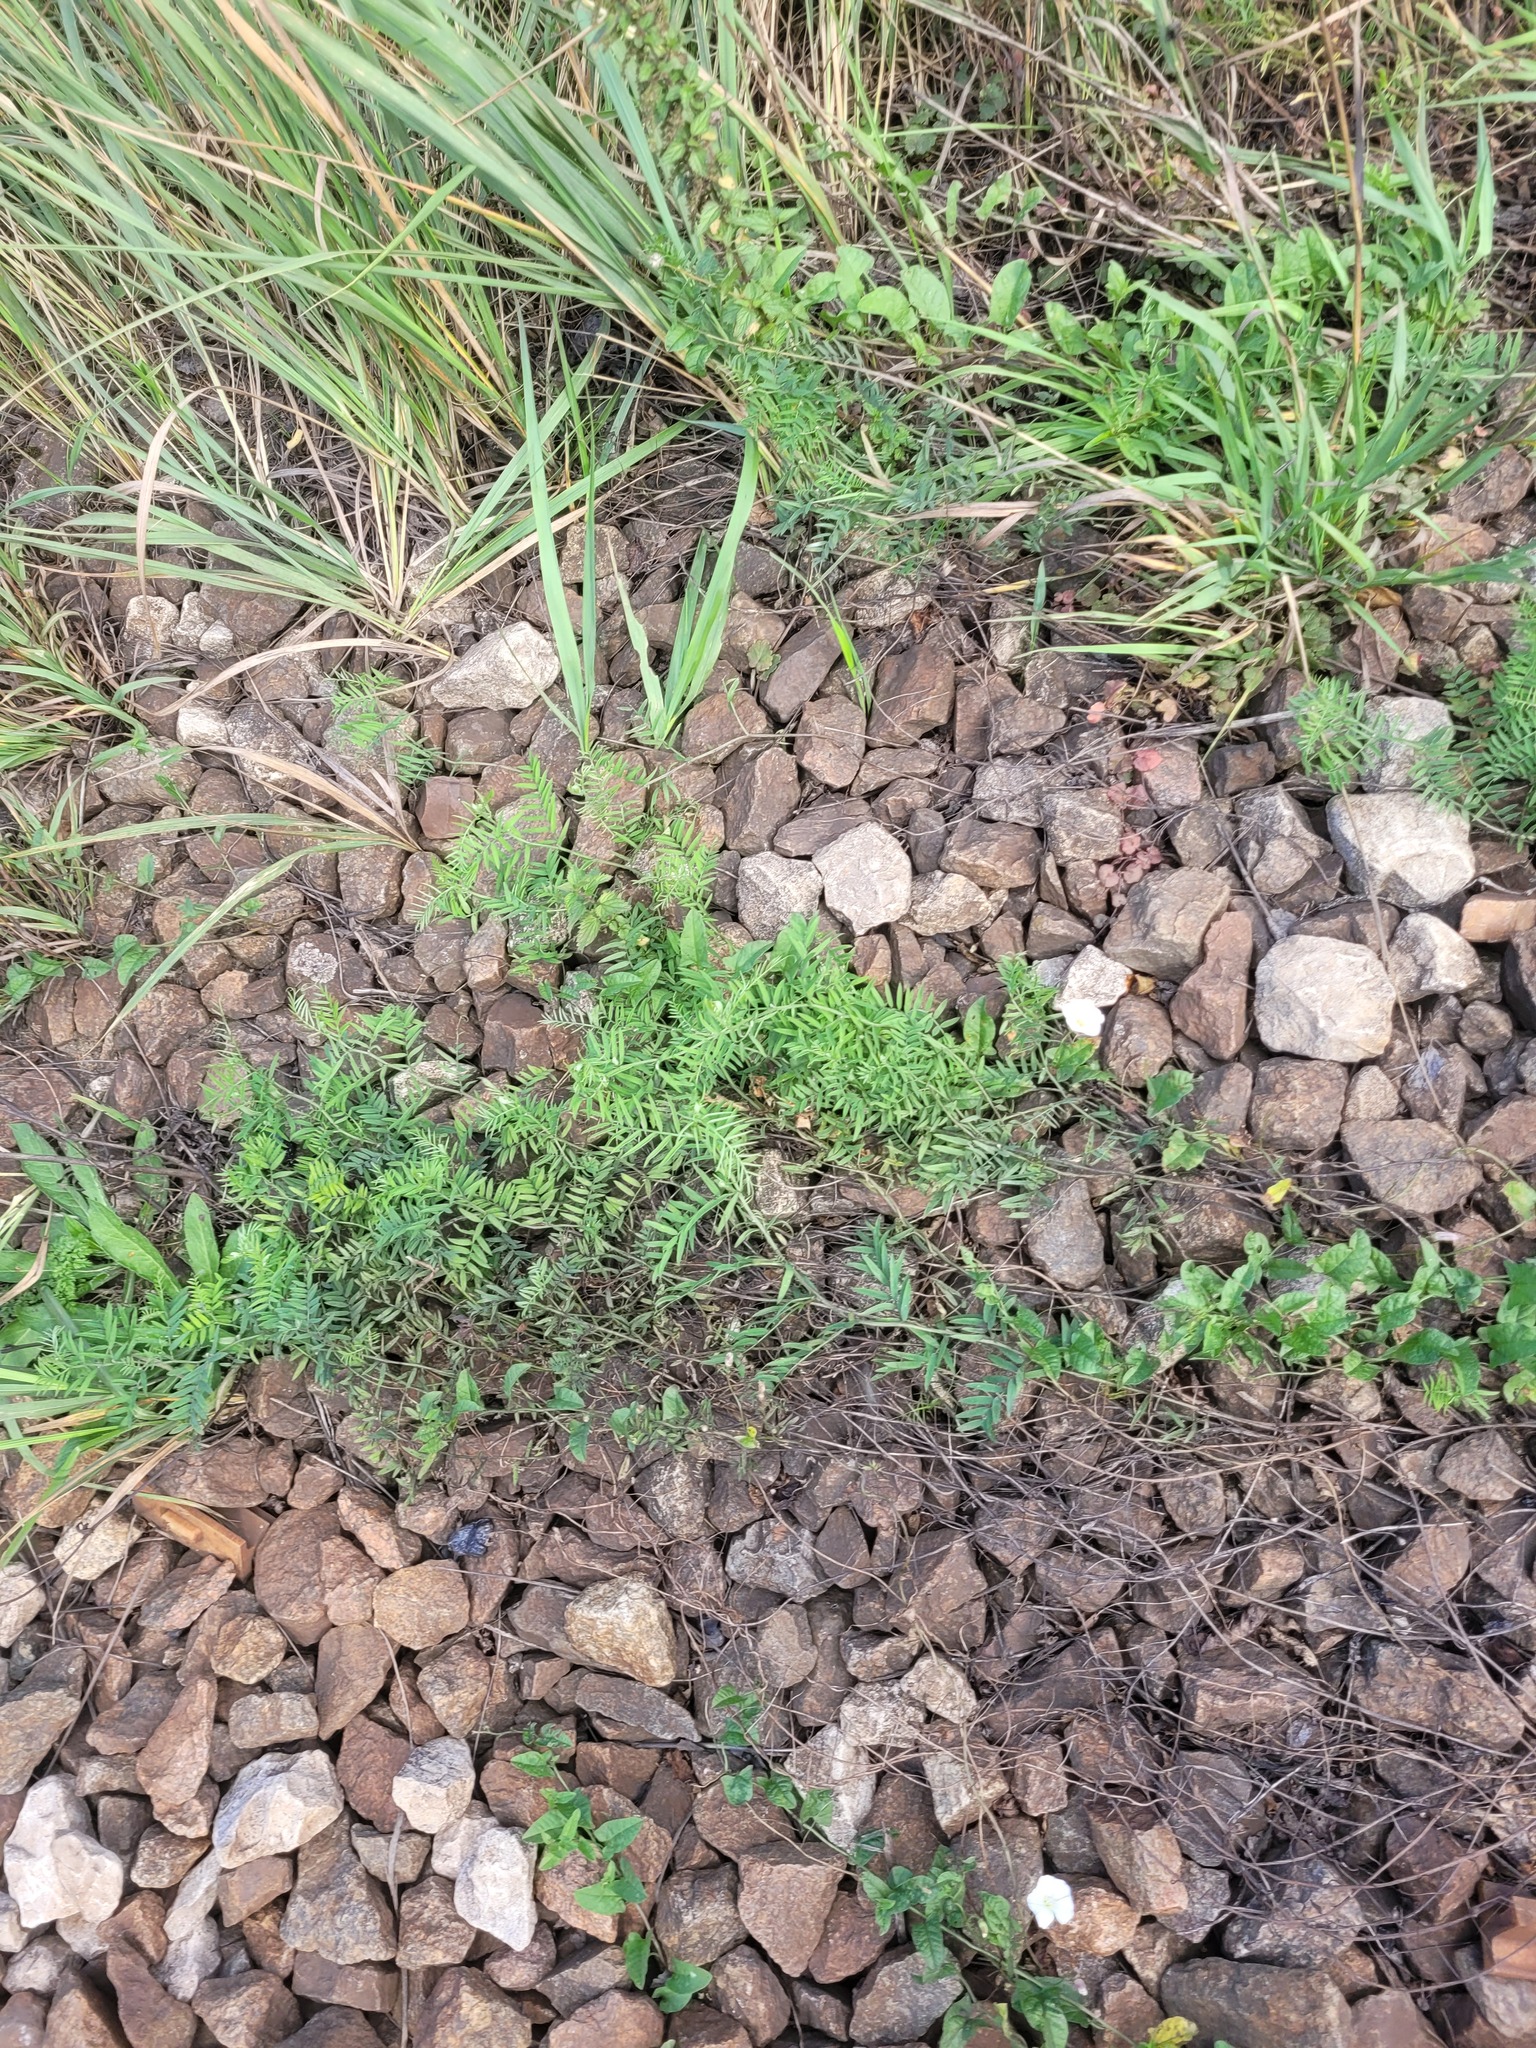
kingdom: Plantae
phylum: Tracheophyta
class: Magnoliopsida
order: Fabales
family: Fabaceae
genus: Vicia
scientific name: Vicia cracca
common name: Bird vetch
